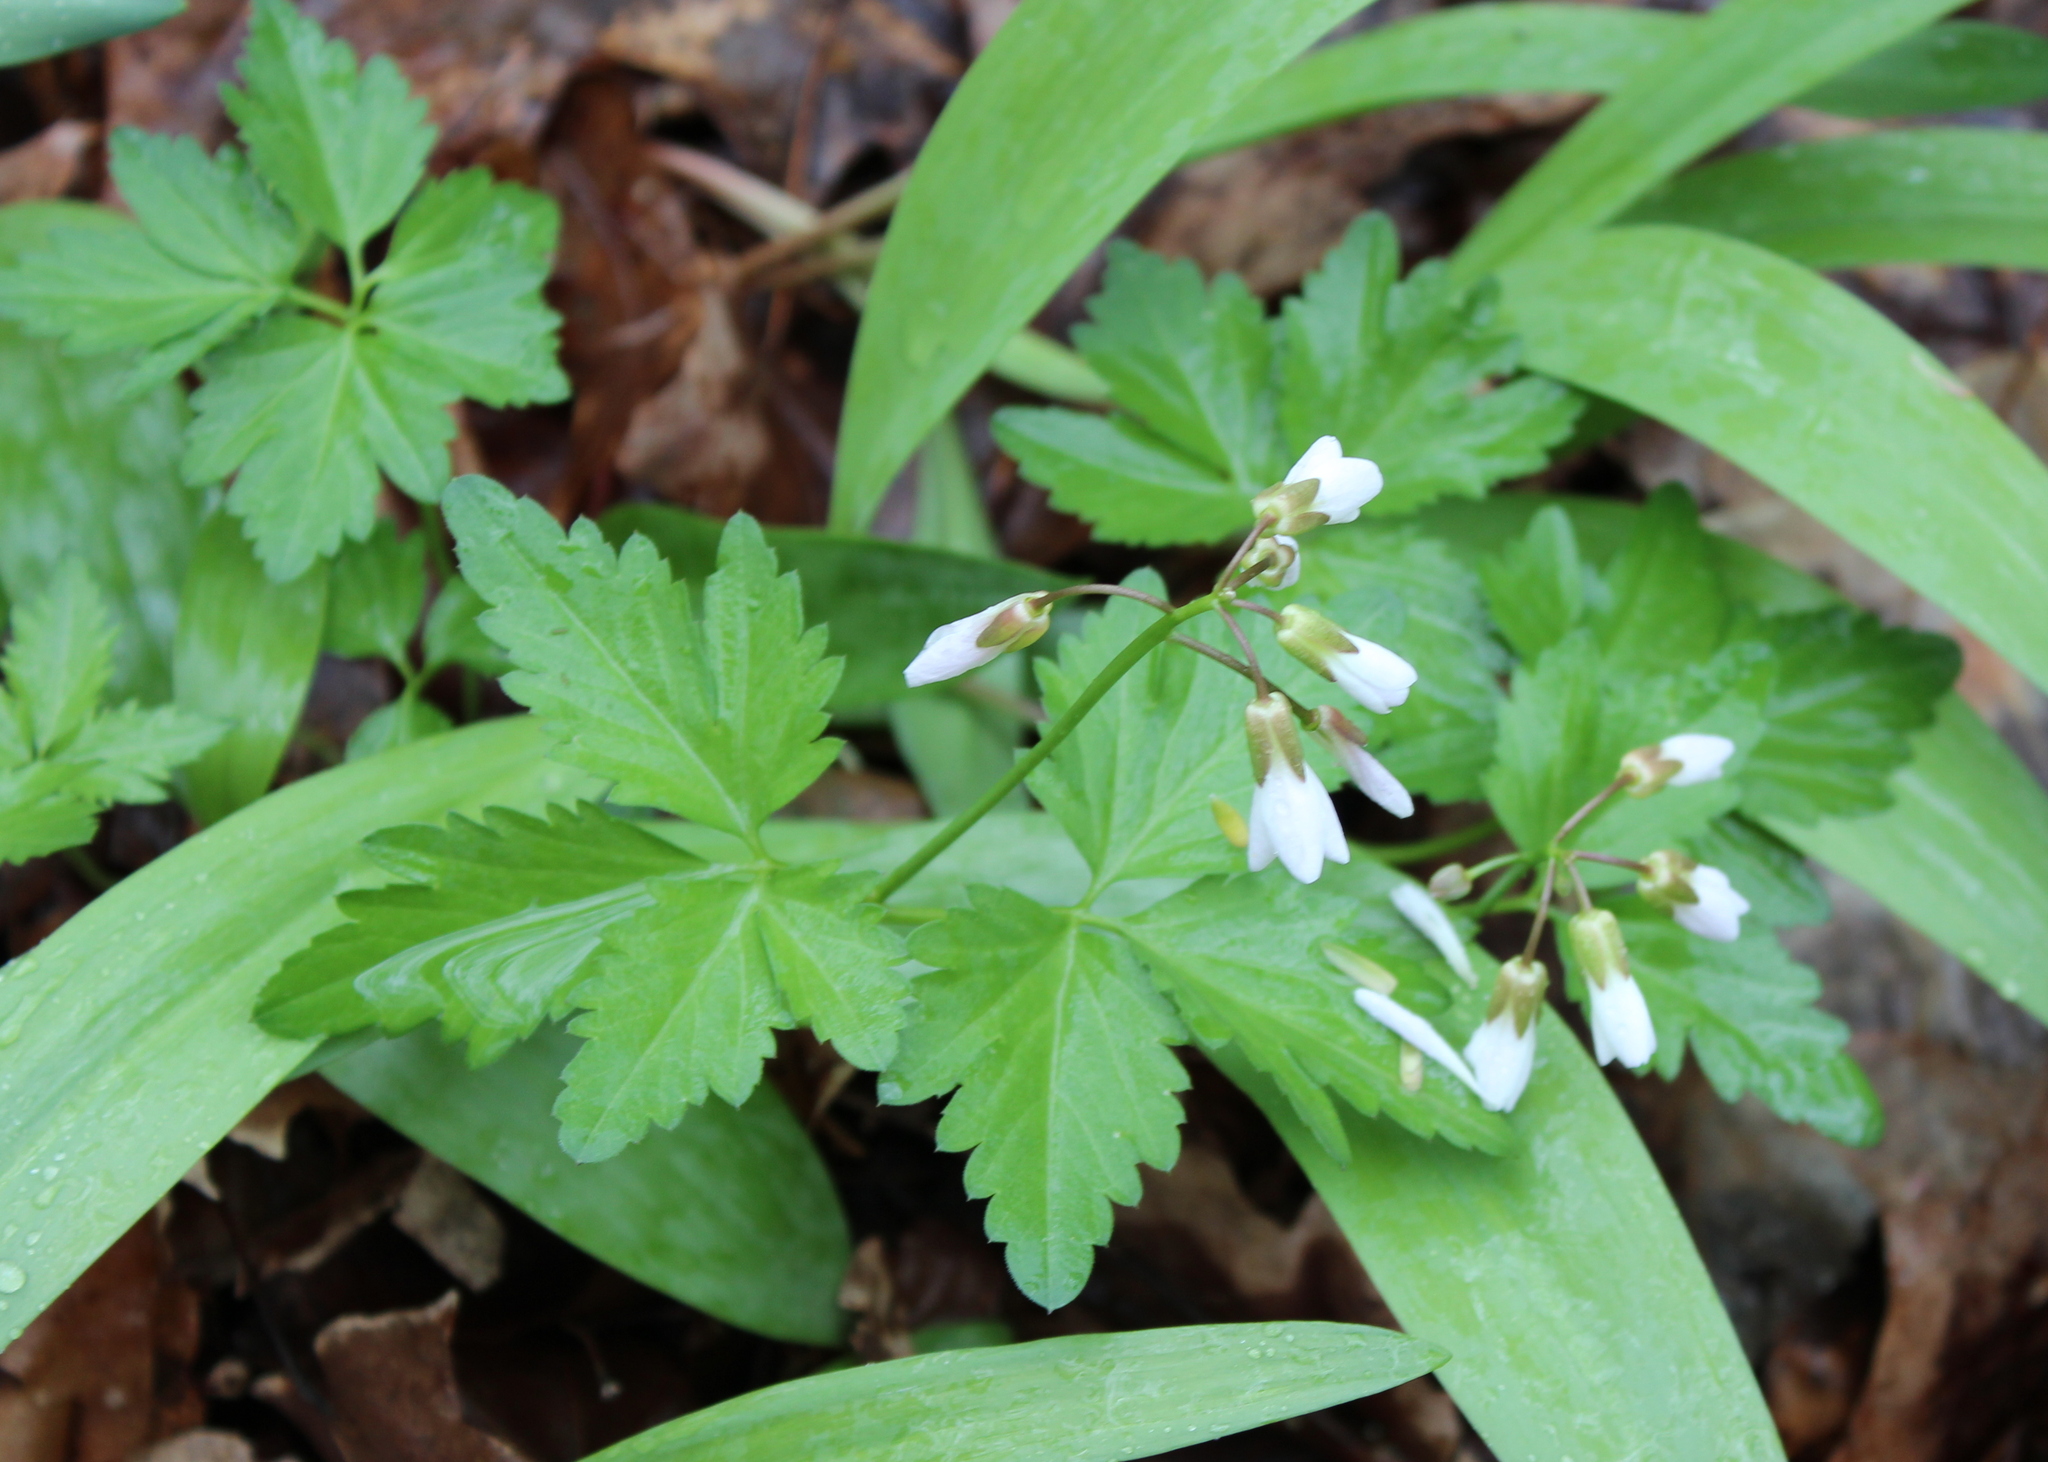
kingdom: Plantae
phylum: Tracheophyta
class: Magnoliopsida
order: Brassicales
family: Brassicaceae
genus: Cardamine
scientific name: Cardamine diphylla
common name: Broad-leaved toothwort
